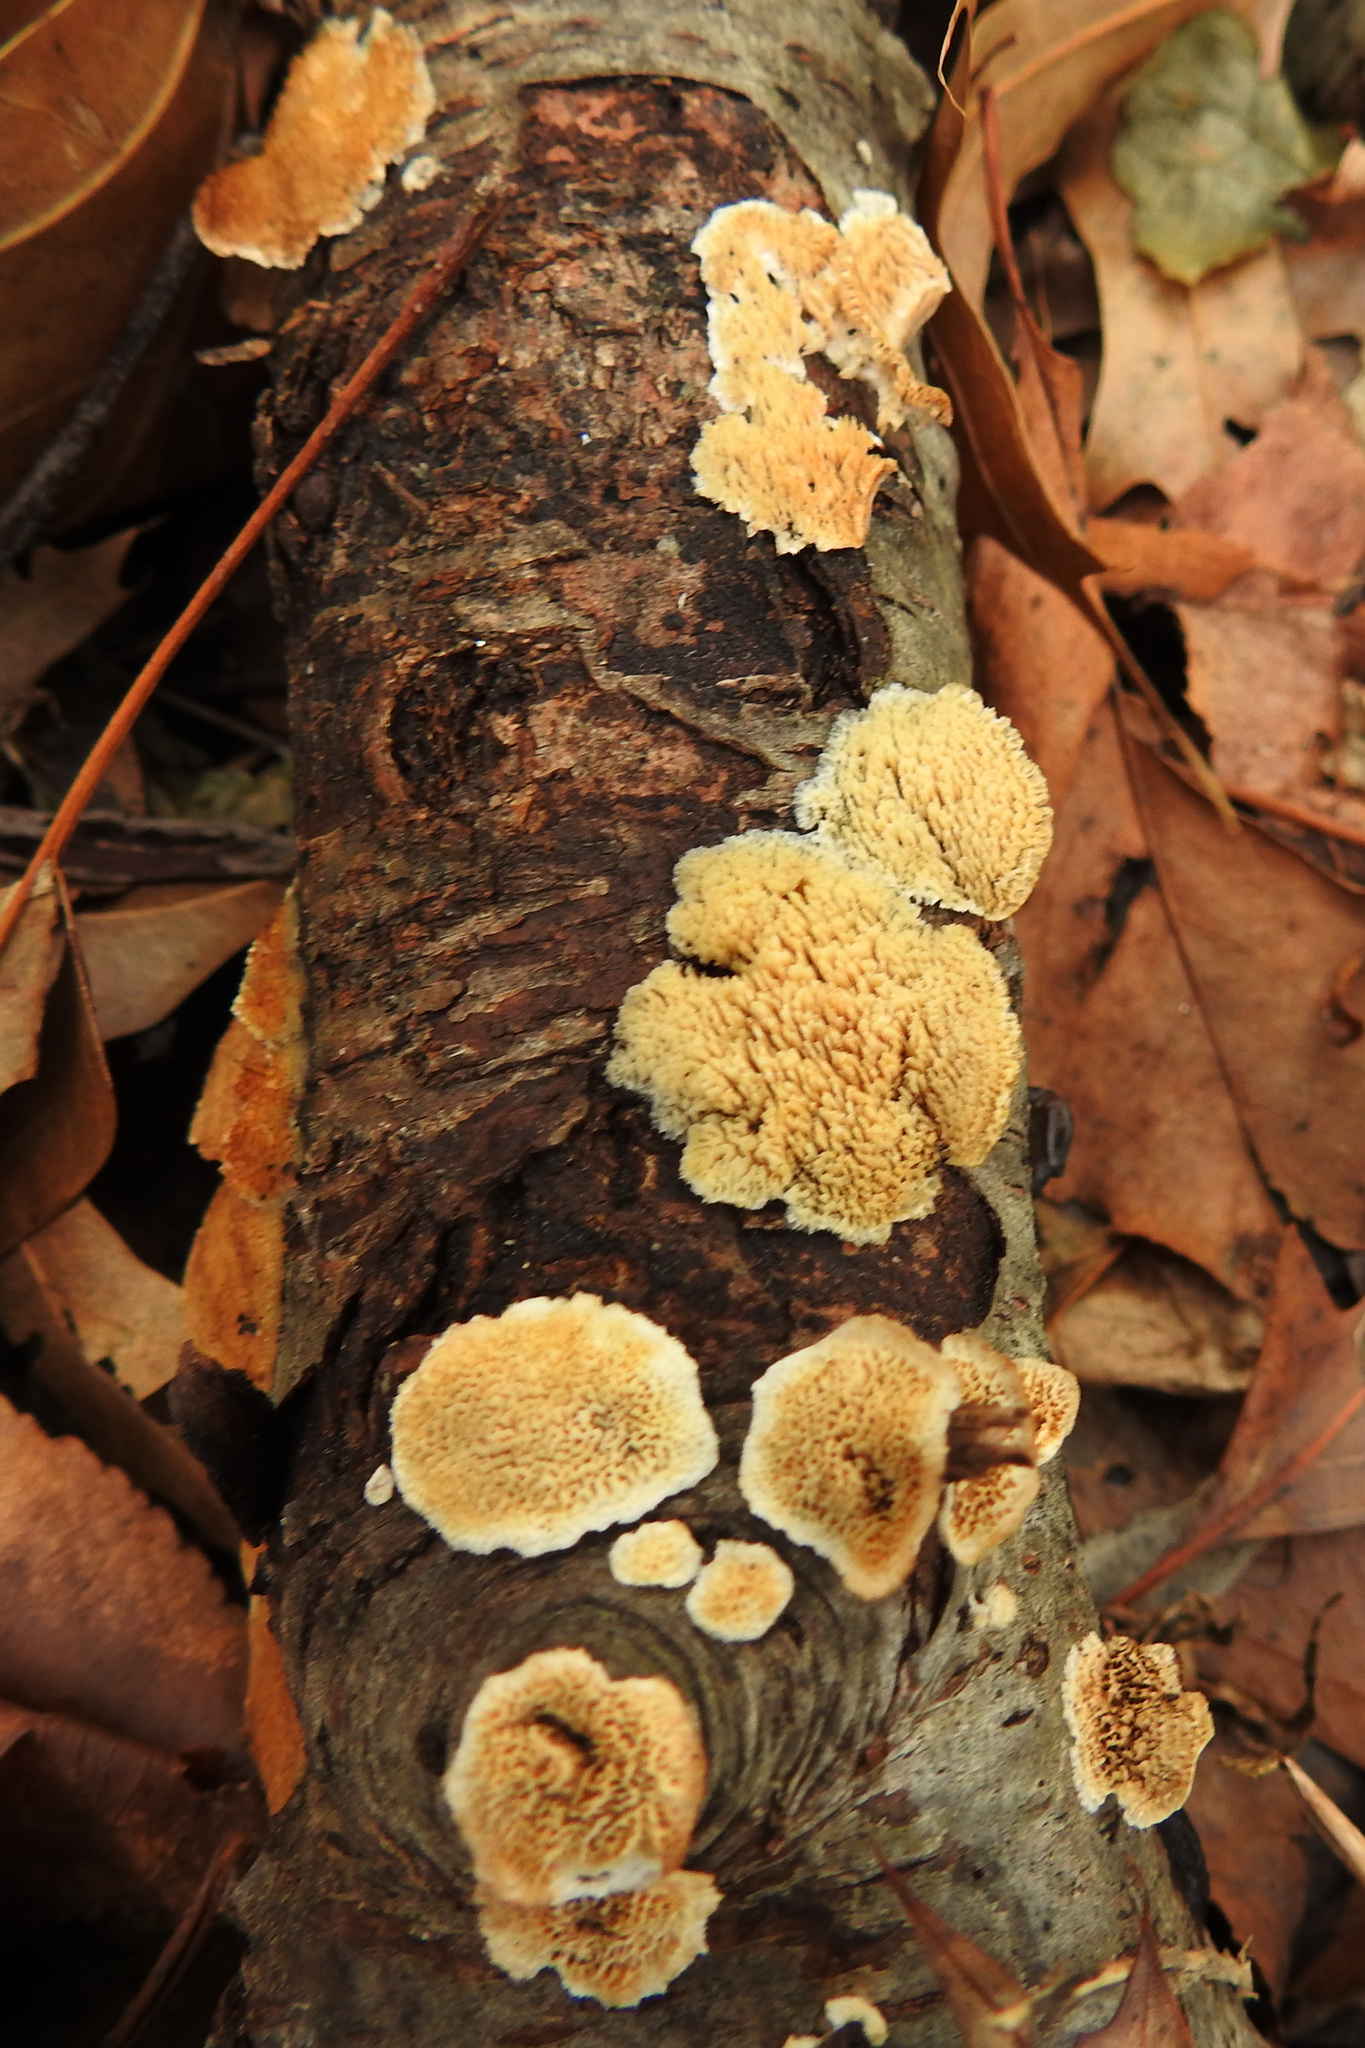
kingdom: Fungi
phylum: Basidiomycota
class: Agaricomycetes
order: Polyporales
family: Steccherinaceae
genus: Steccherinum
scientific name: Steccherinum ochraceum
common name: Ochre spreading tooth
